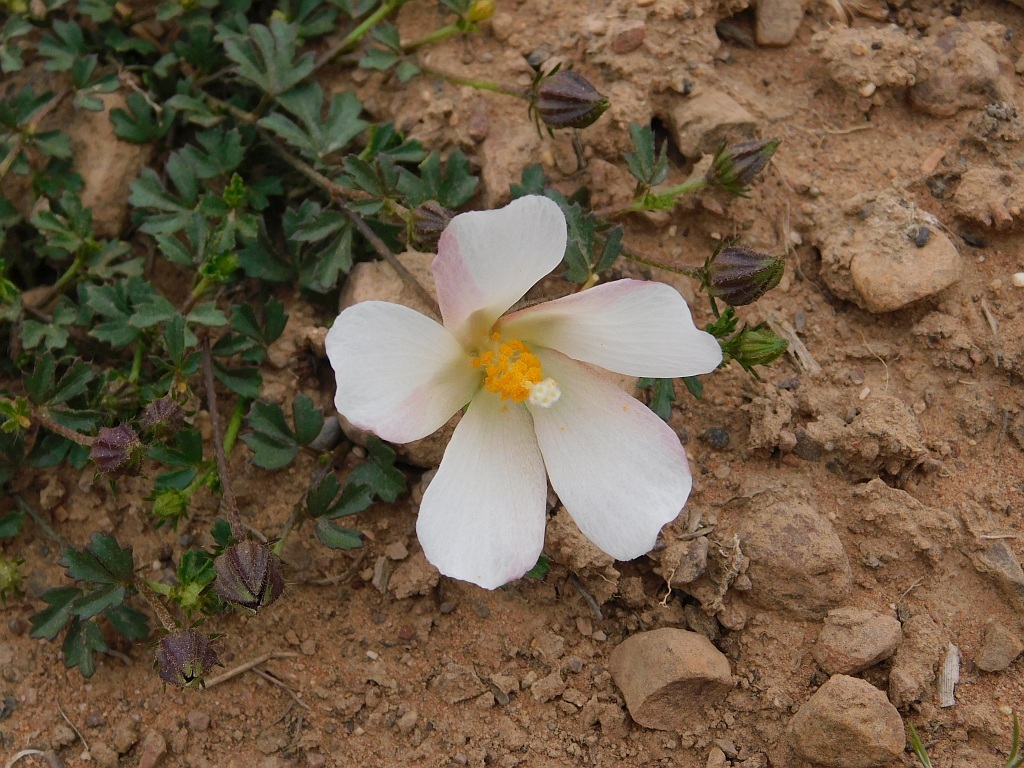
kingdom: Plantae
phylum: Tracheophyta
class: Magnoliopsida
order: Malvales
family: Malvaceae
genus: Hibiscus
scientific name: Hibiscus pusillus
